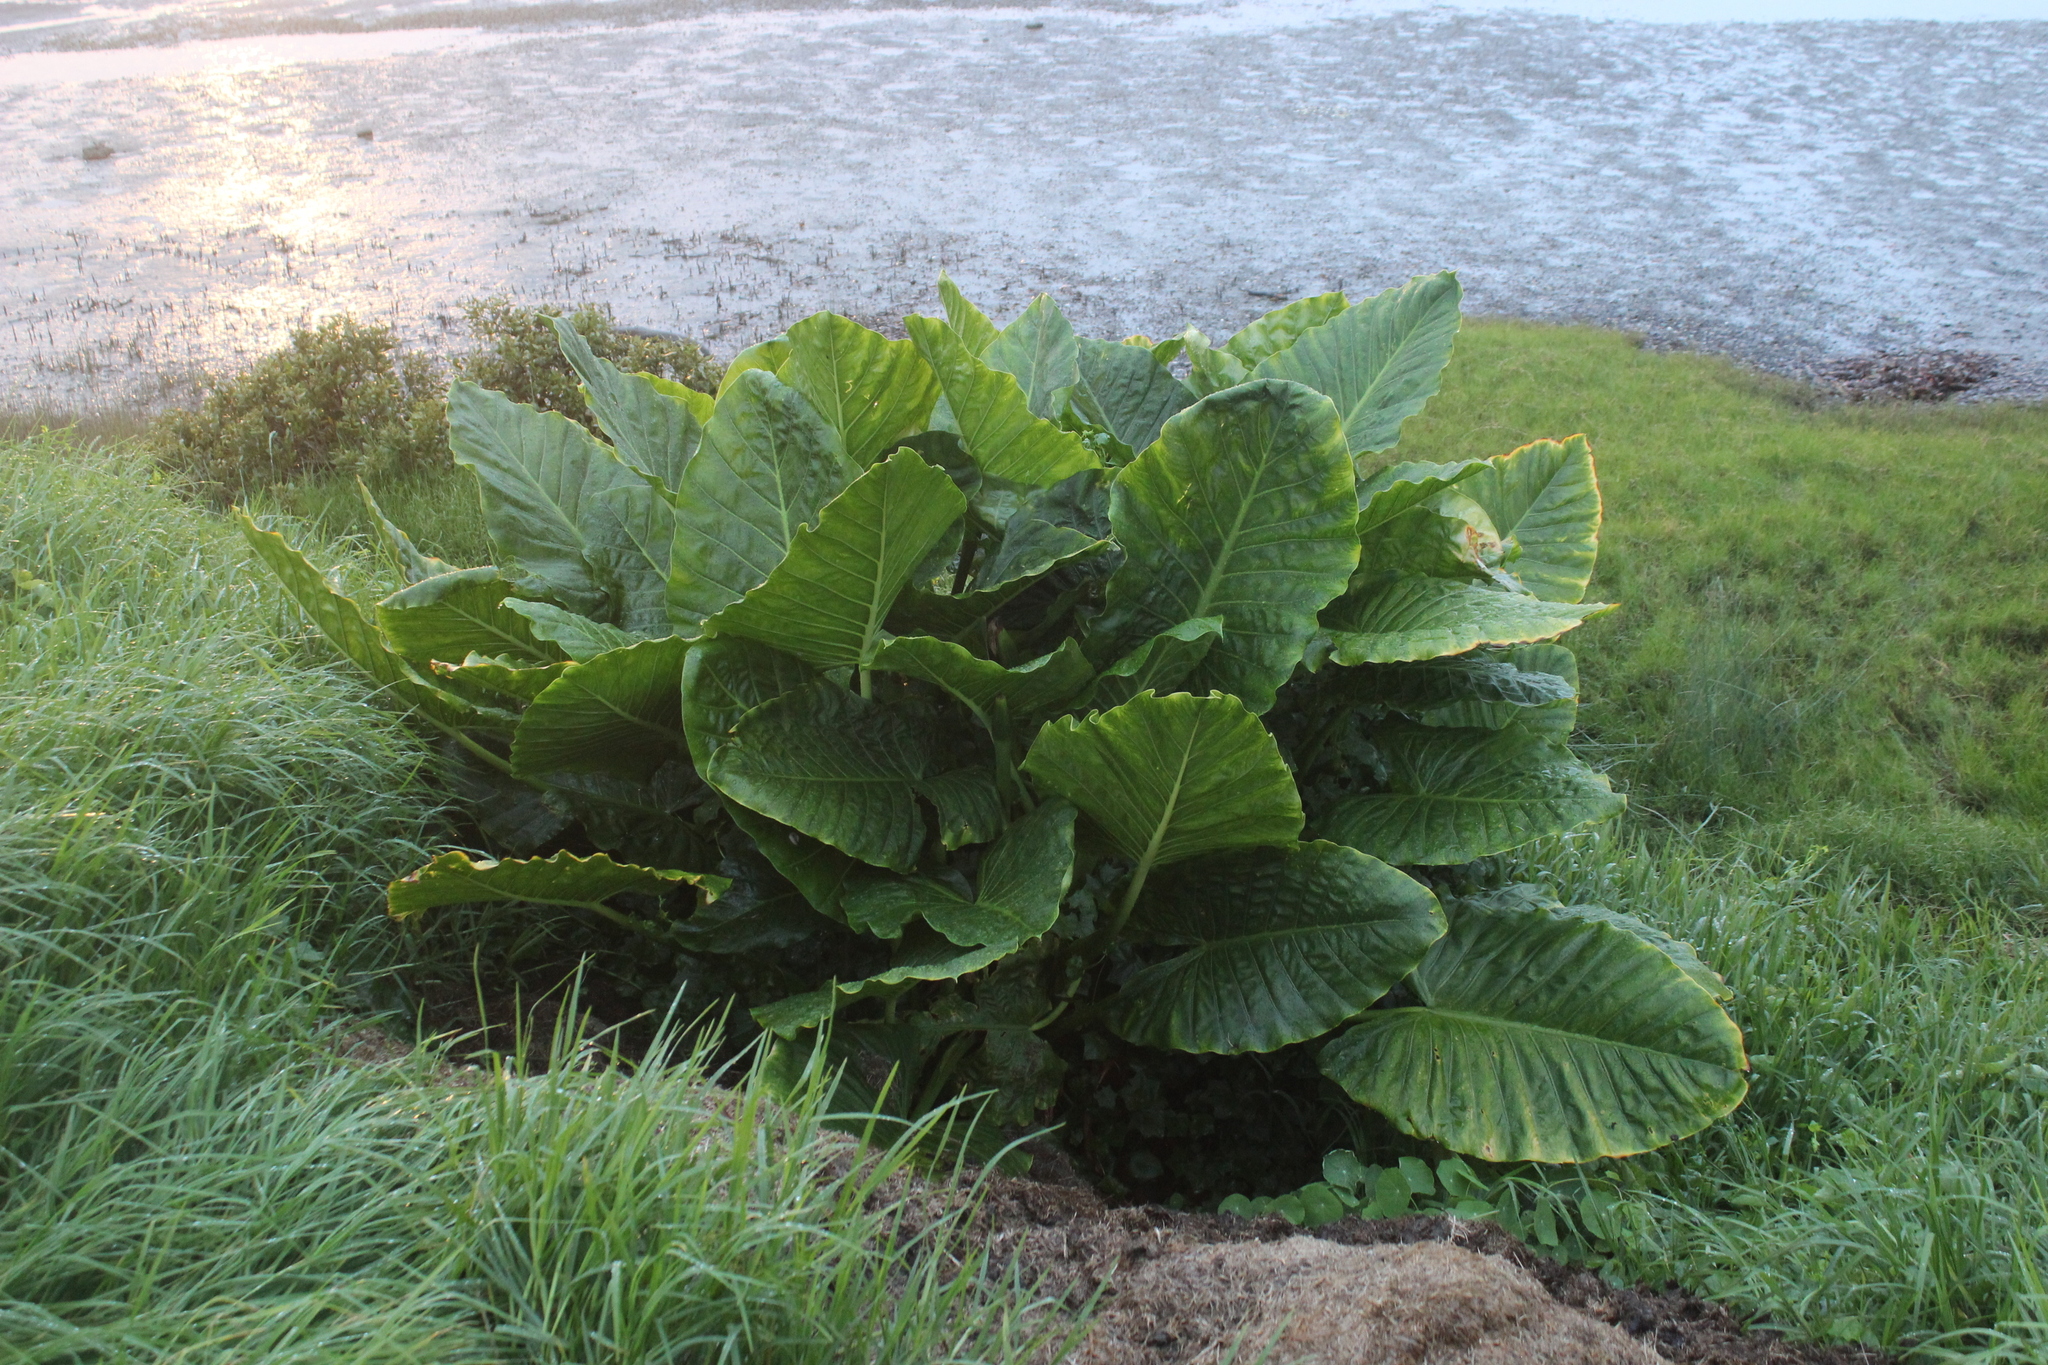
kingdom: Plantae
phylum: Tracheophyta
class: Liliopsida
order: Alismatales
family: Araceae
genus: Alocasia
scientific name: Alocasia brisbanensis
